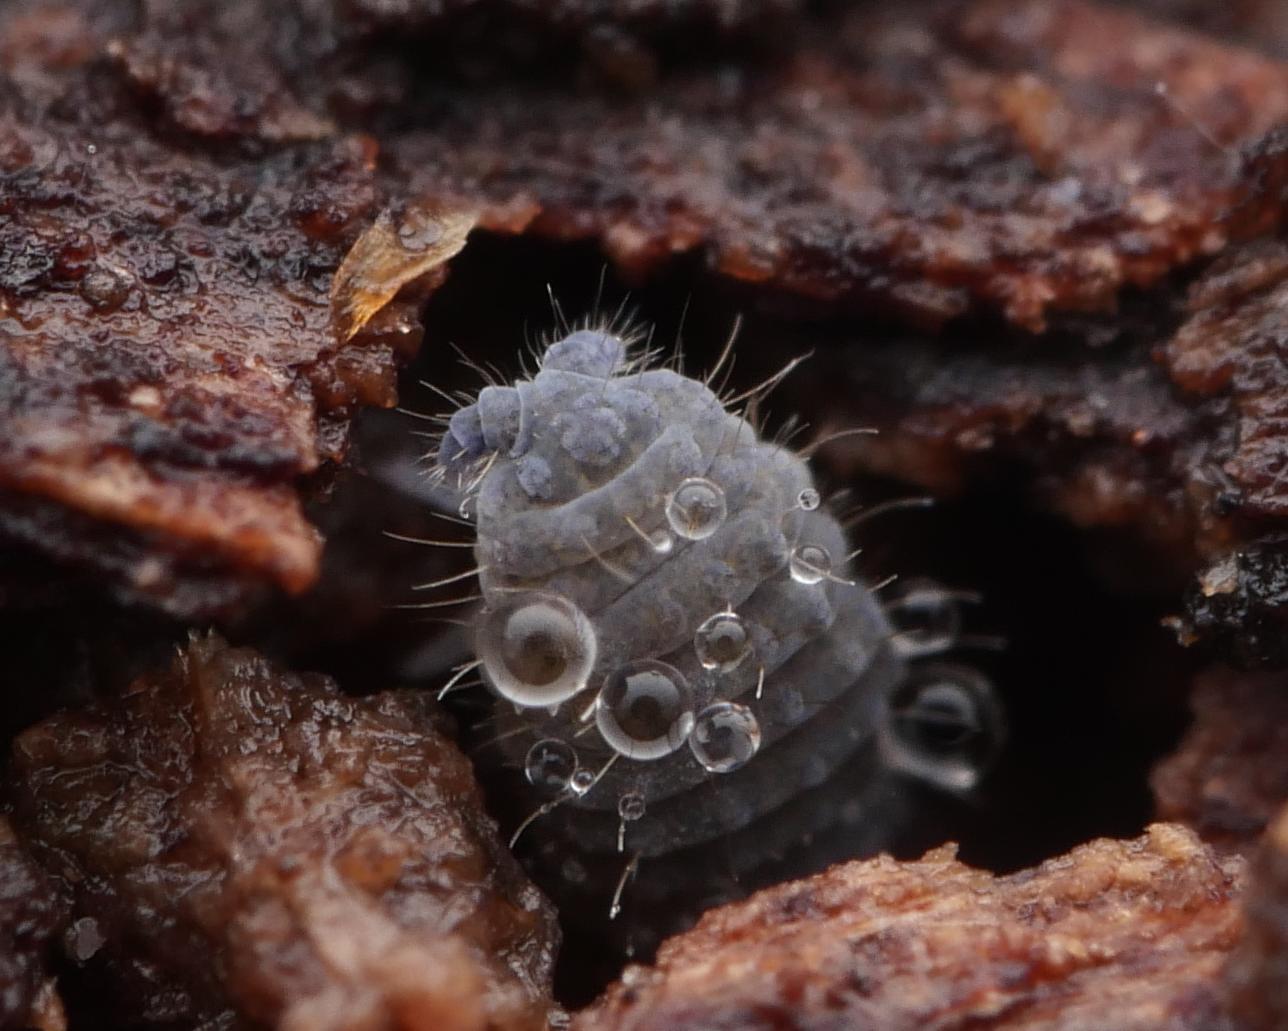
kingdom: Animalia
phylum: Arthropoda
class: Collembola
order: Poduromorpha
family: Neanuridae
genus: Neanura
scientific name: Neanura muscorum
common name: Springtail
